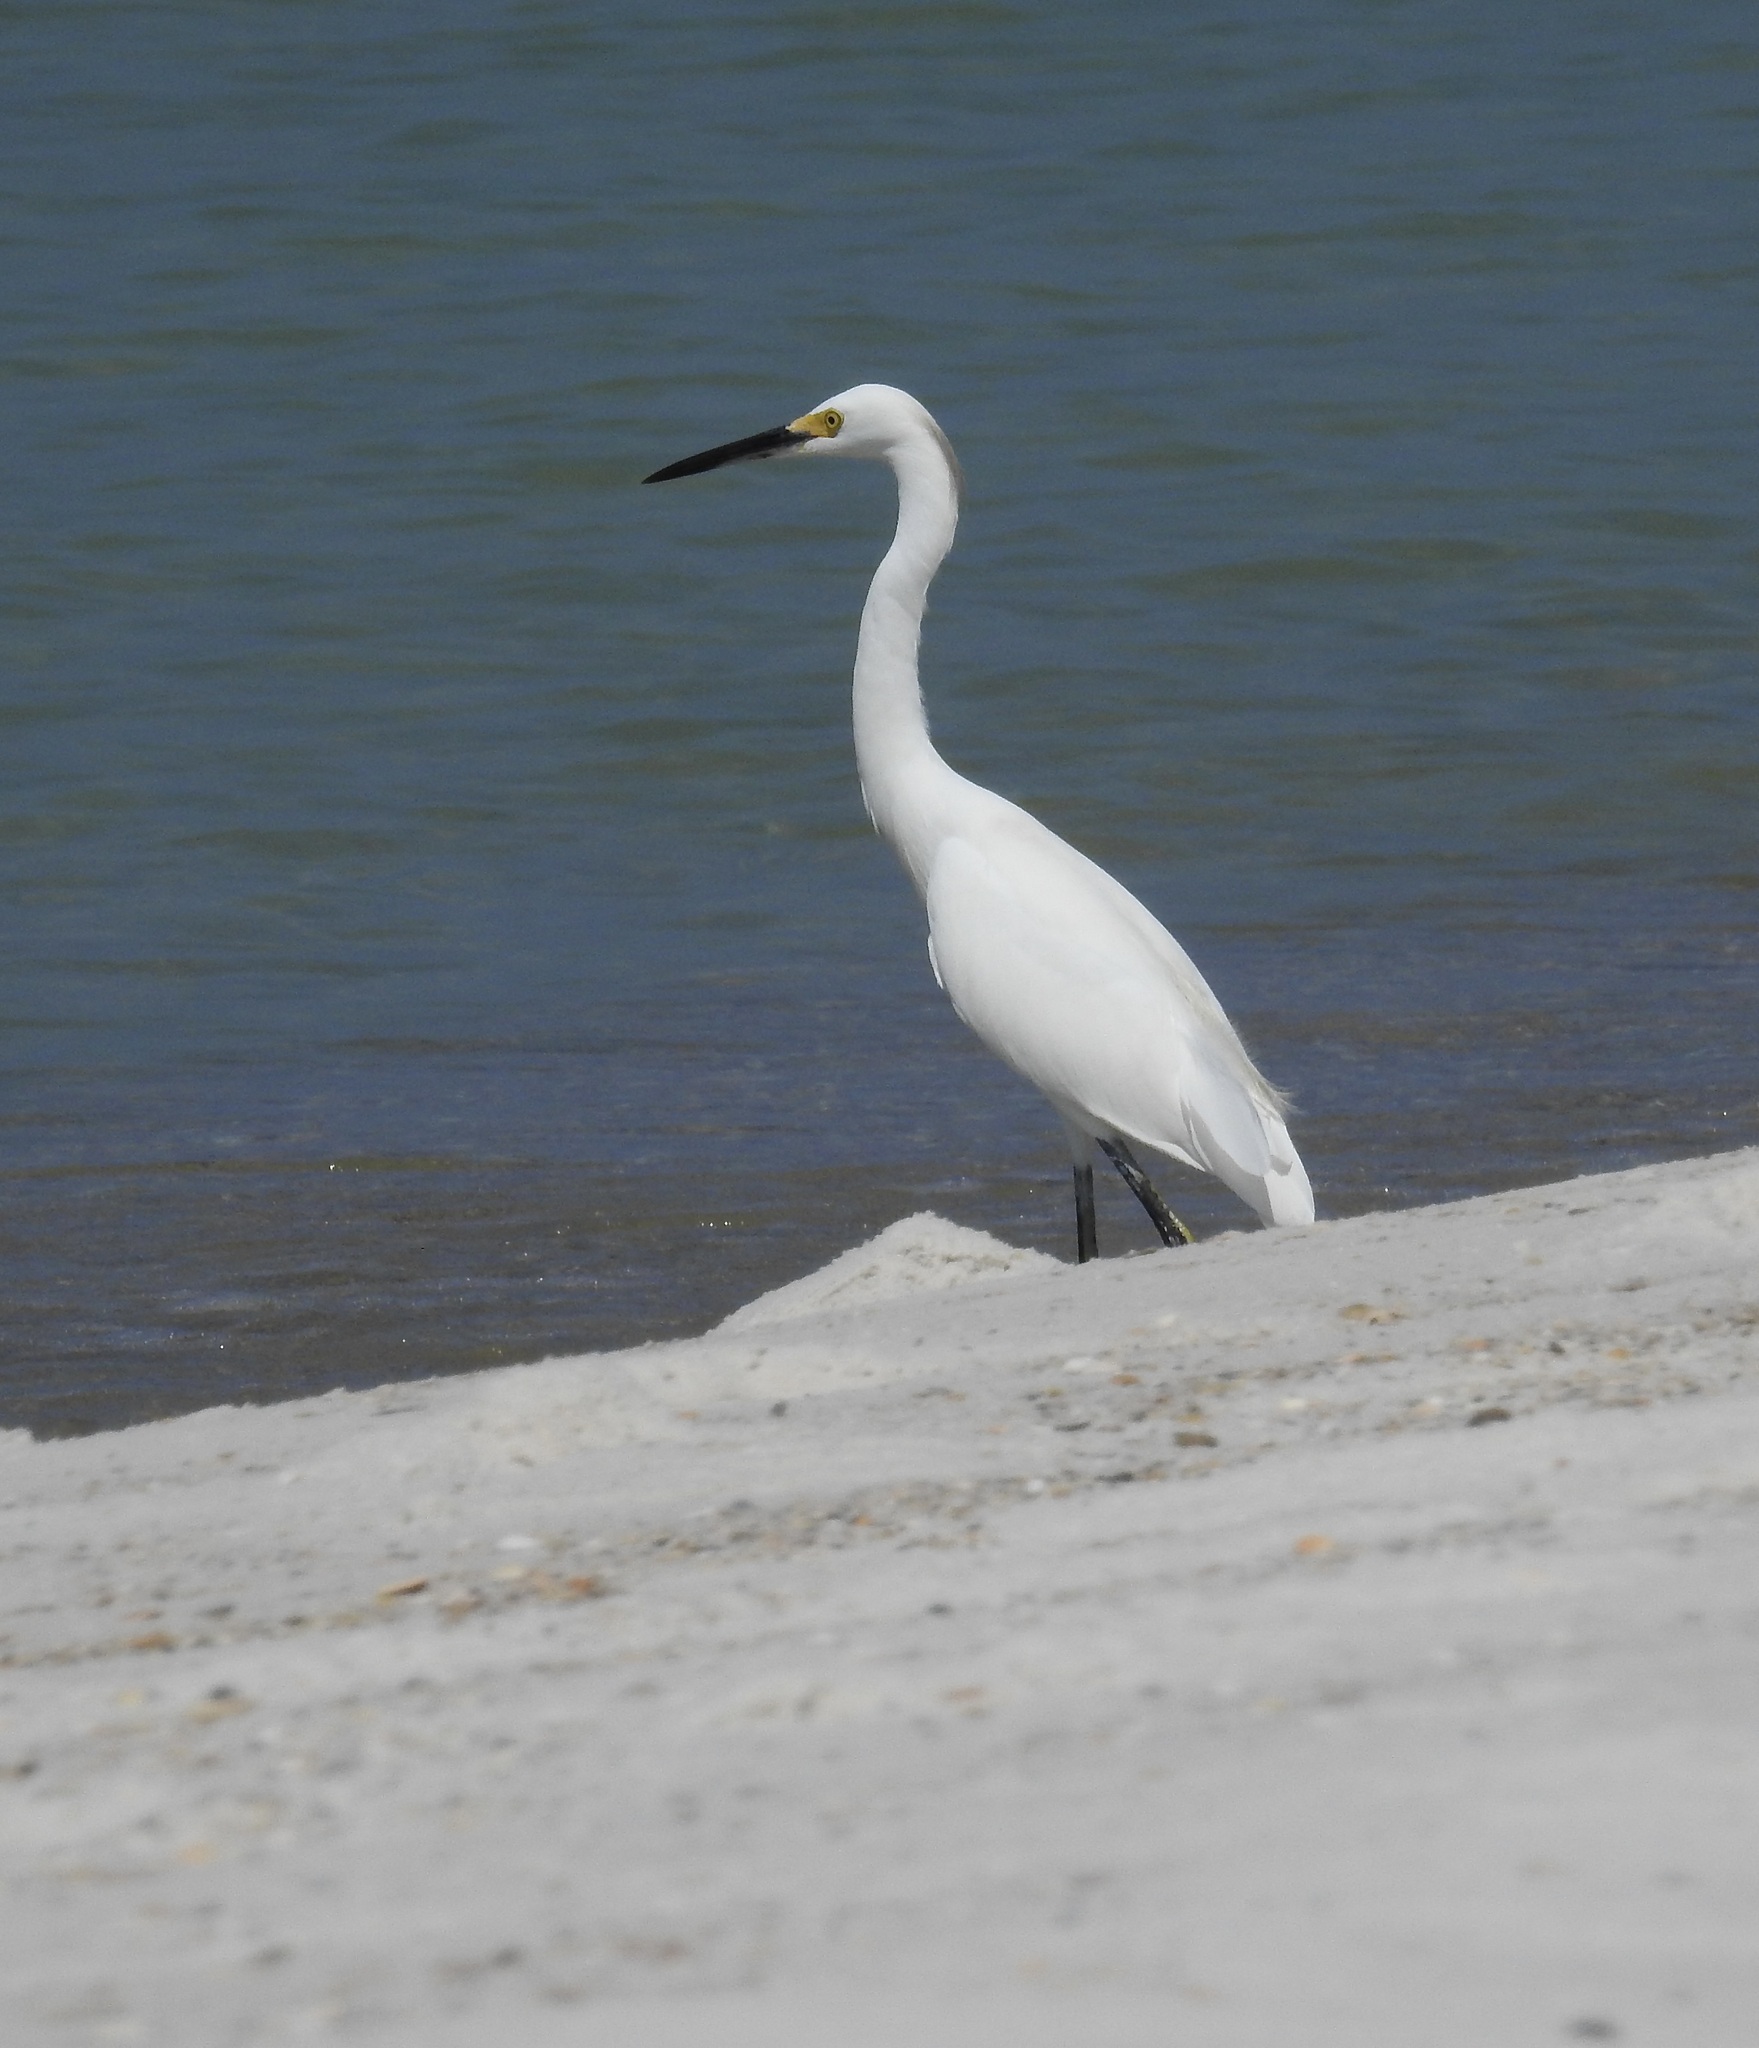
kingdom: Animalia
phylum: Chordata
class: Aves
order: Pelecaniformes
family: Ardeidae
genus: Egretta
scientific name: Egretta thula
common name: Snowy egret
